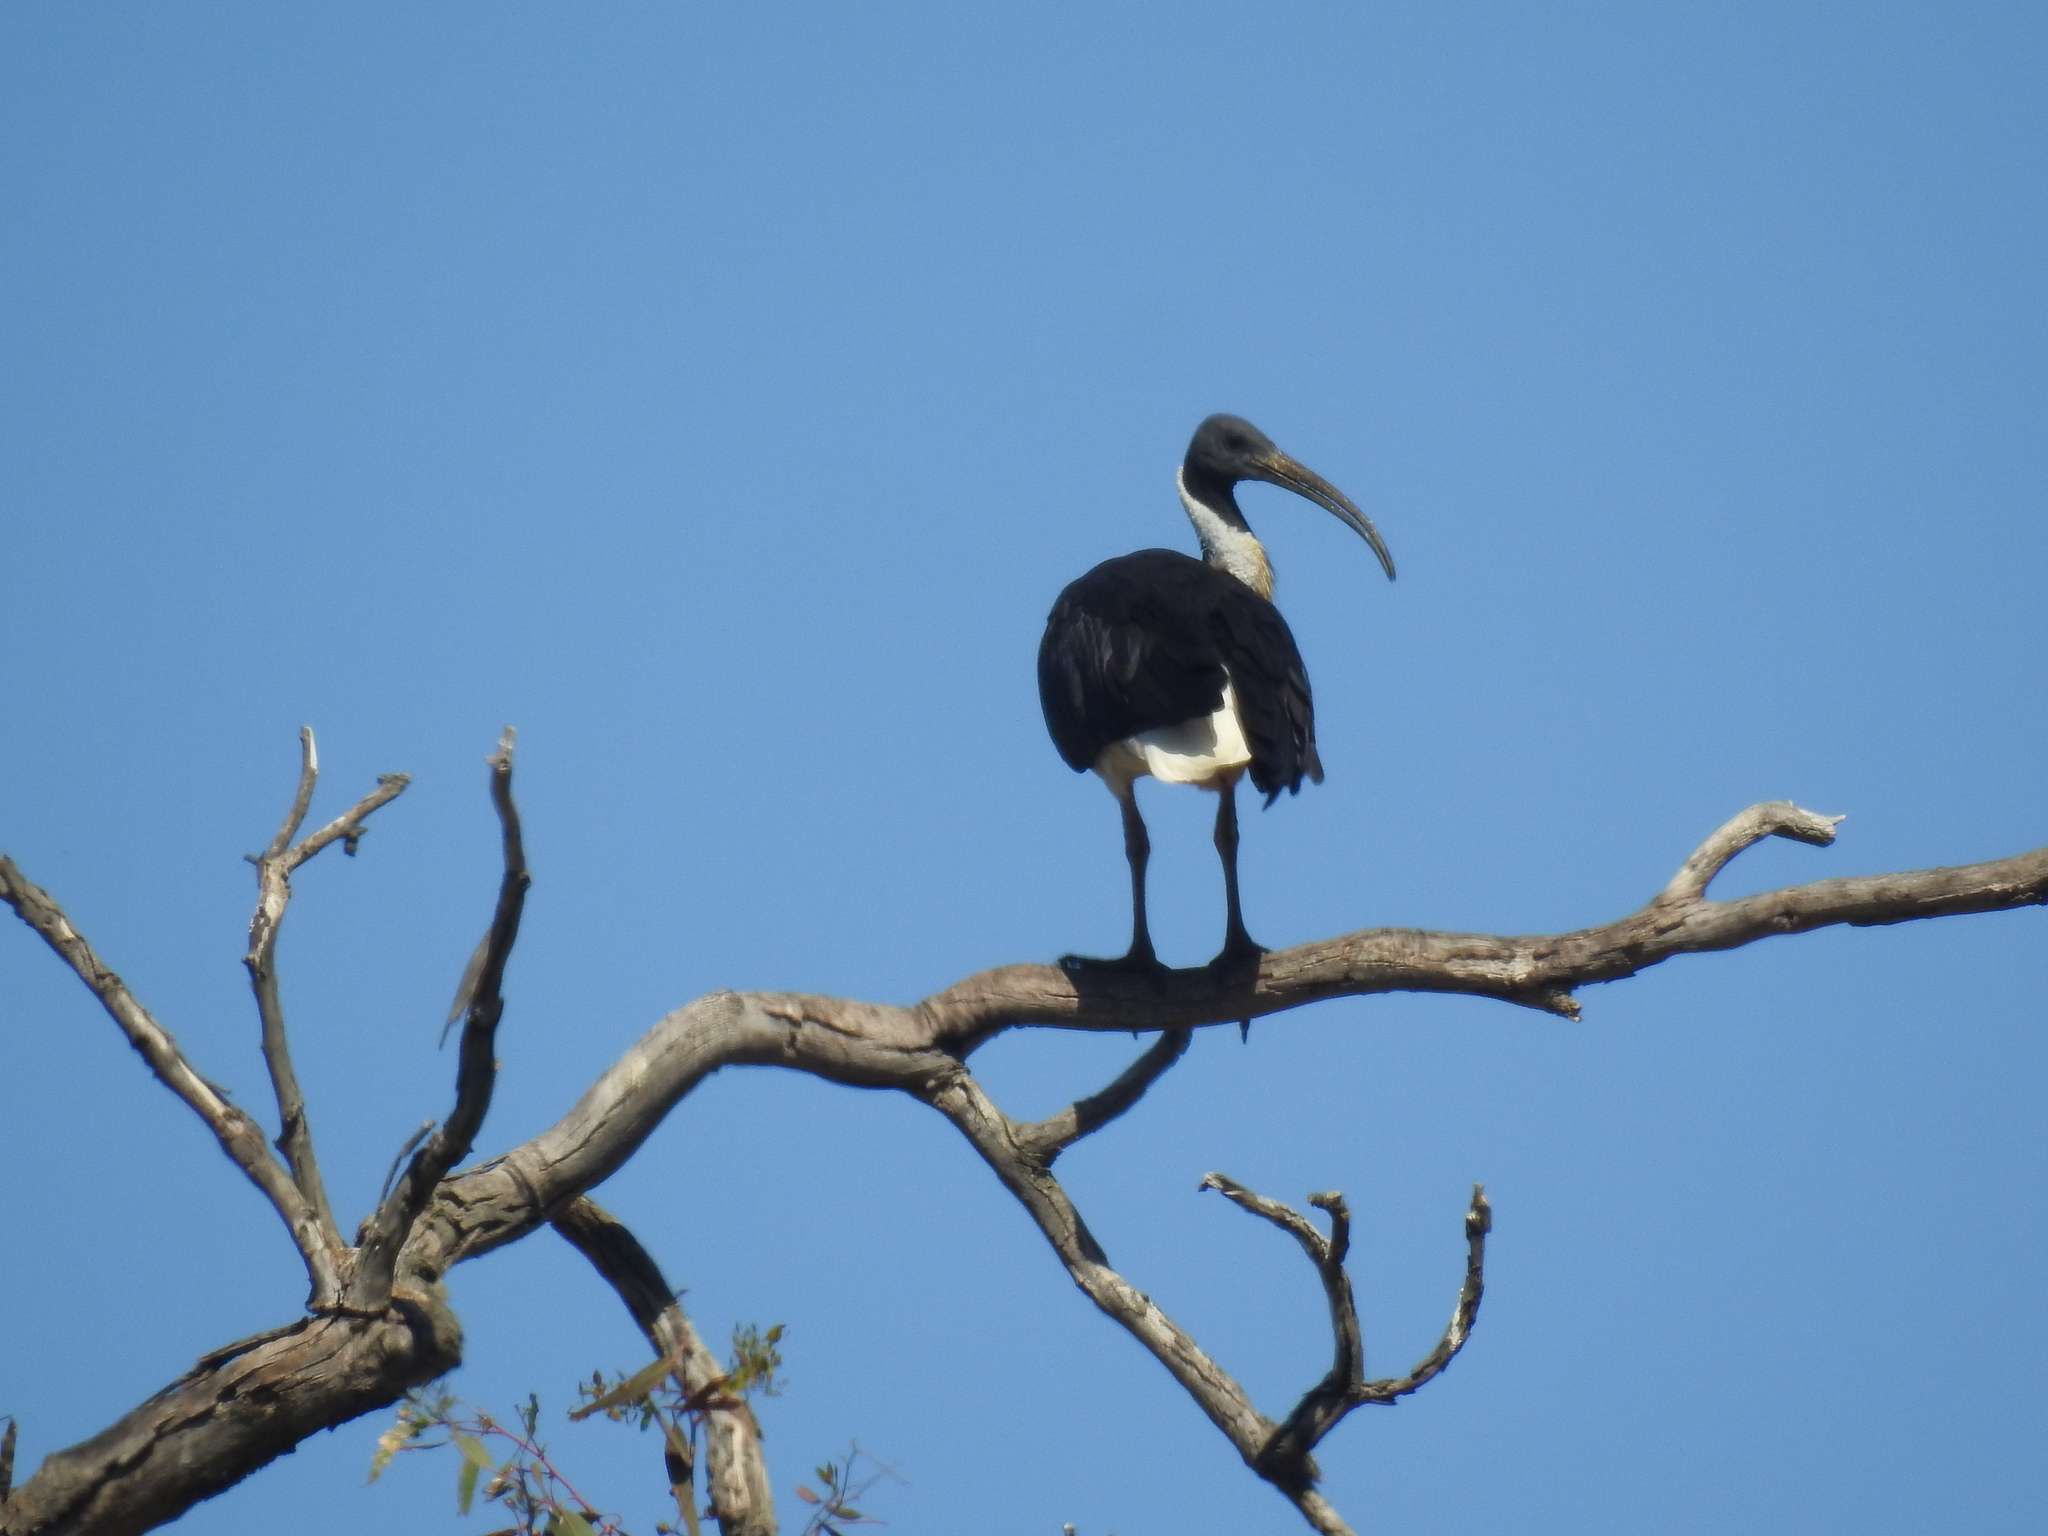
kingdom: Animalia
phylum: Chordata
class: Aves
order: Pelecaniformes
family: Threskiornithidae
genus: Threskiornis
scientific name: Threskiornis spinicollis
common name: Straw-necked ibis
